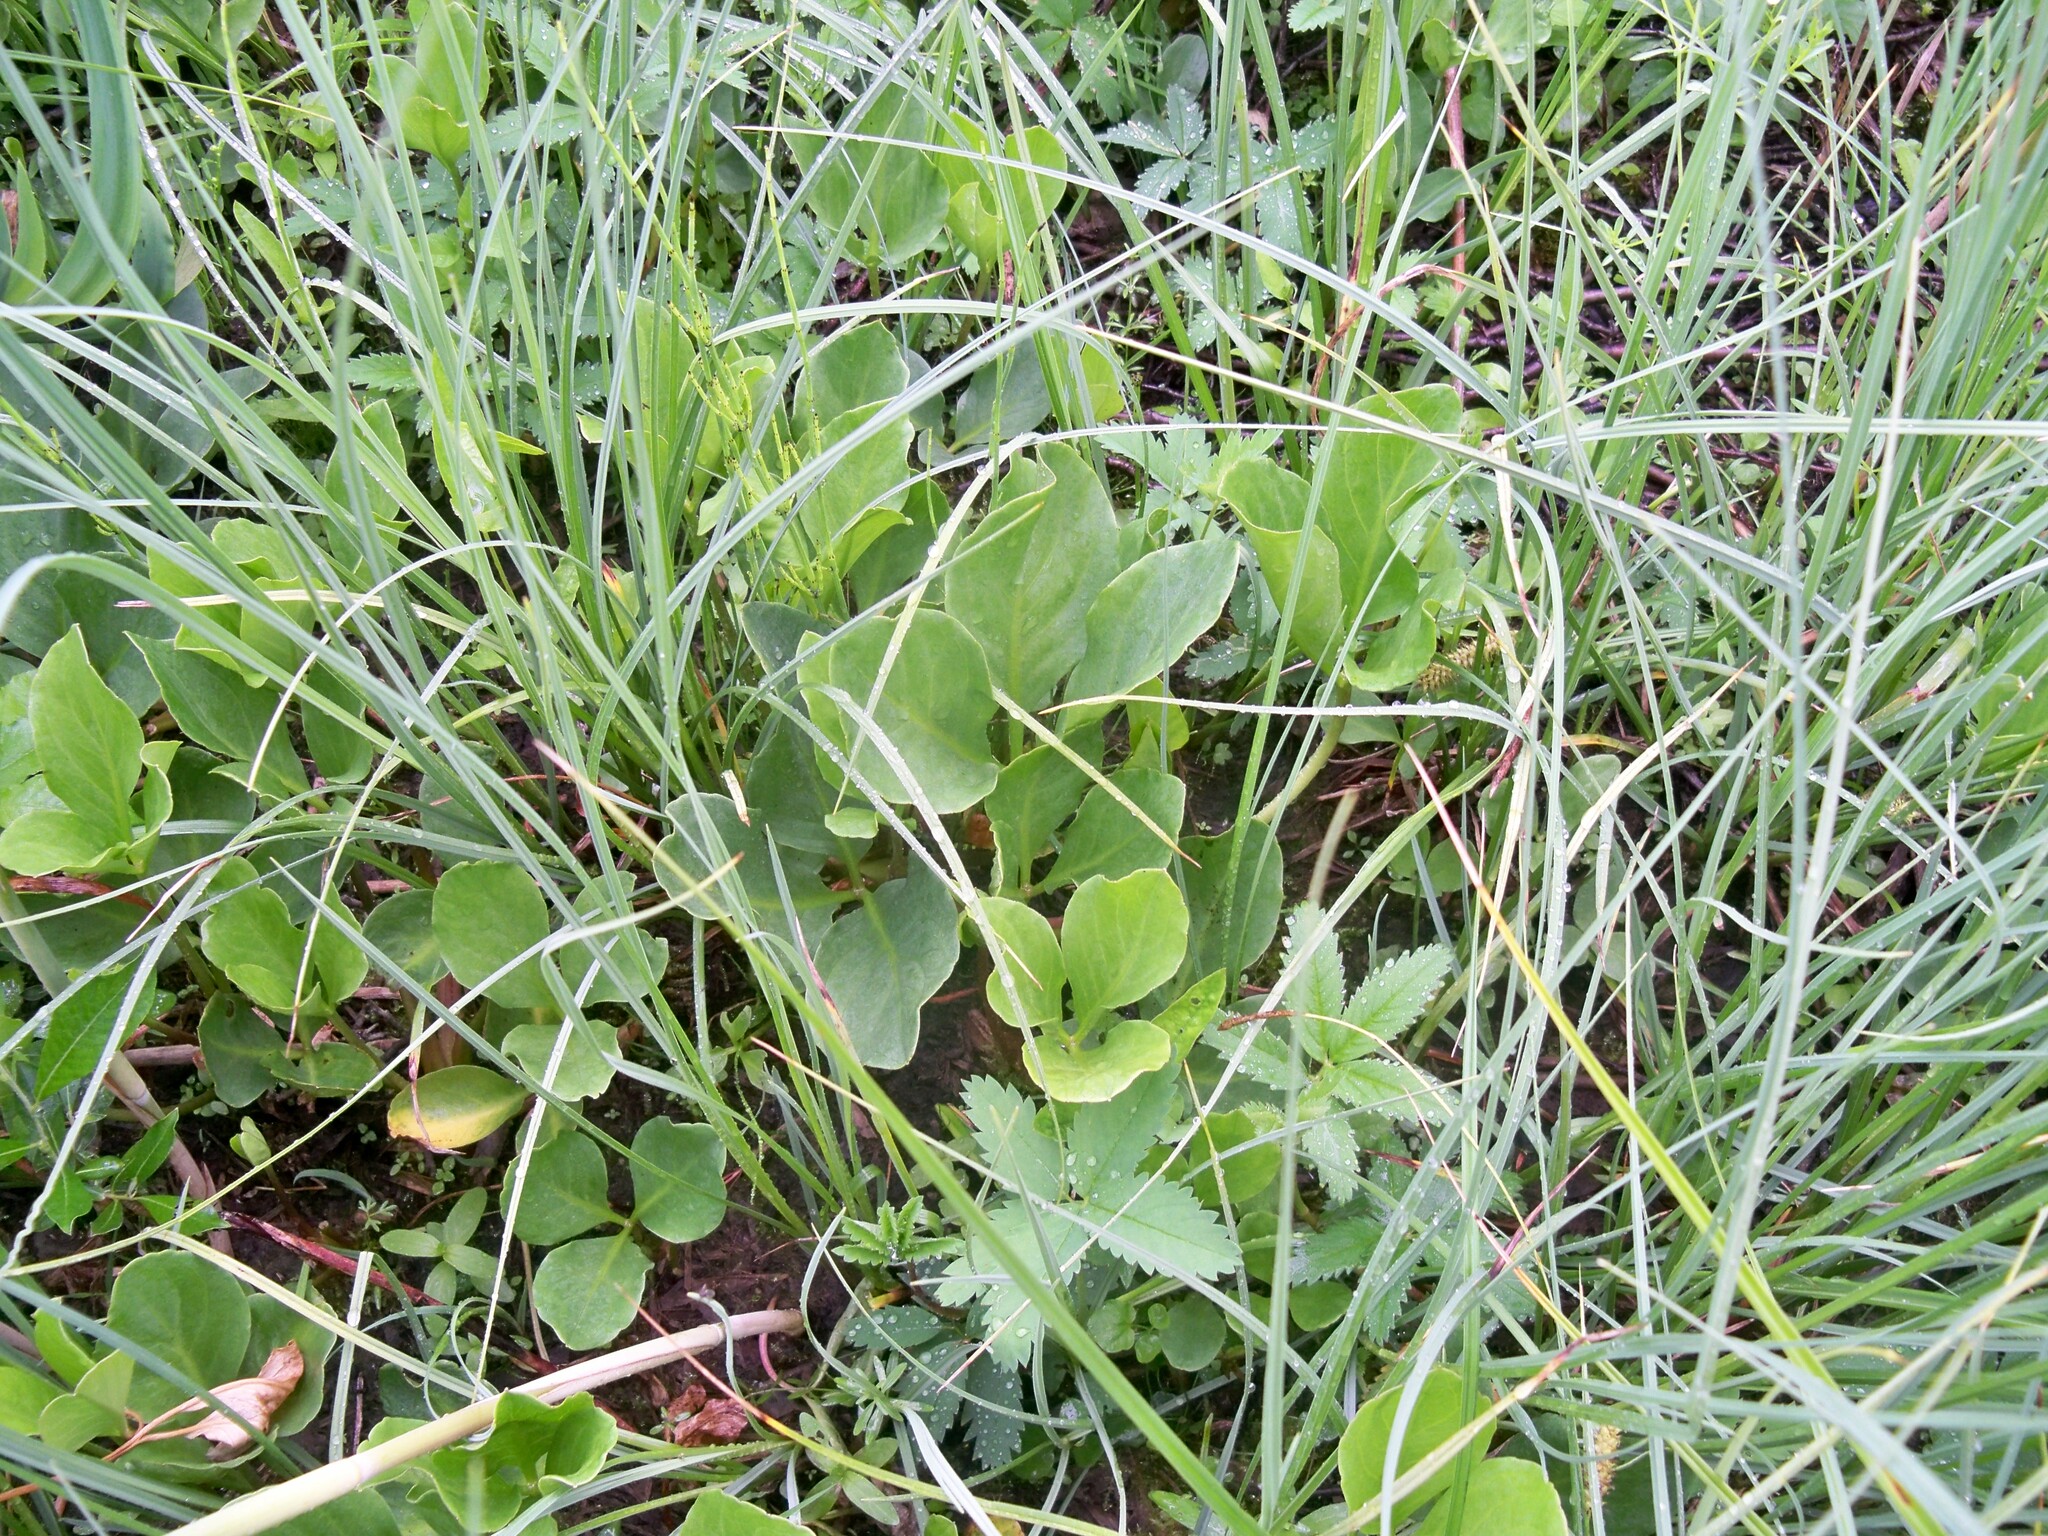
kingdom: Plantae
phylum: Tracheophyta
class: Magnoliopsida
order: Asterales
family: Menyanthaceae
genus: Menyanthes
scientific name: Menyanthes trifoliata
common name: Bogbean
